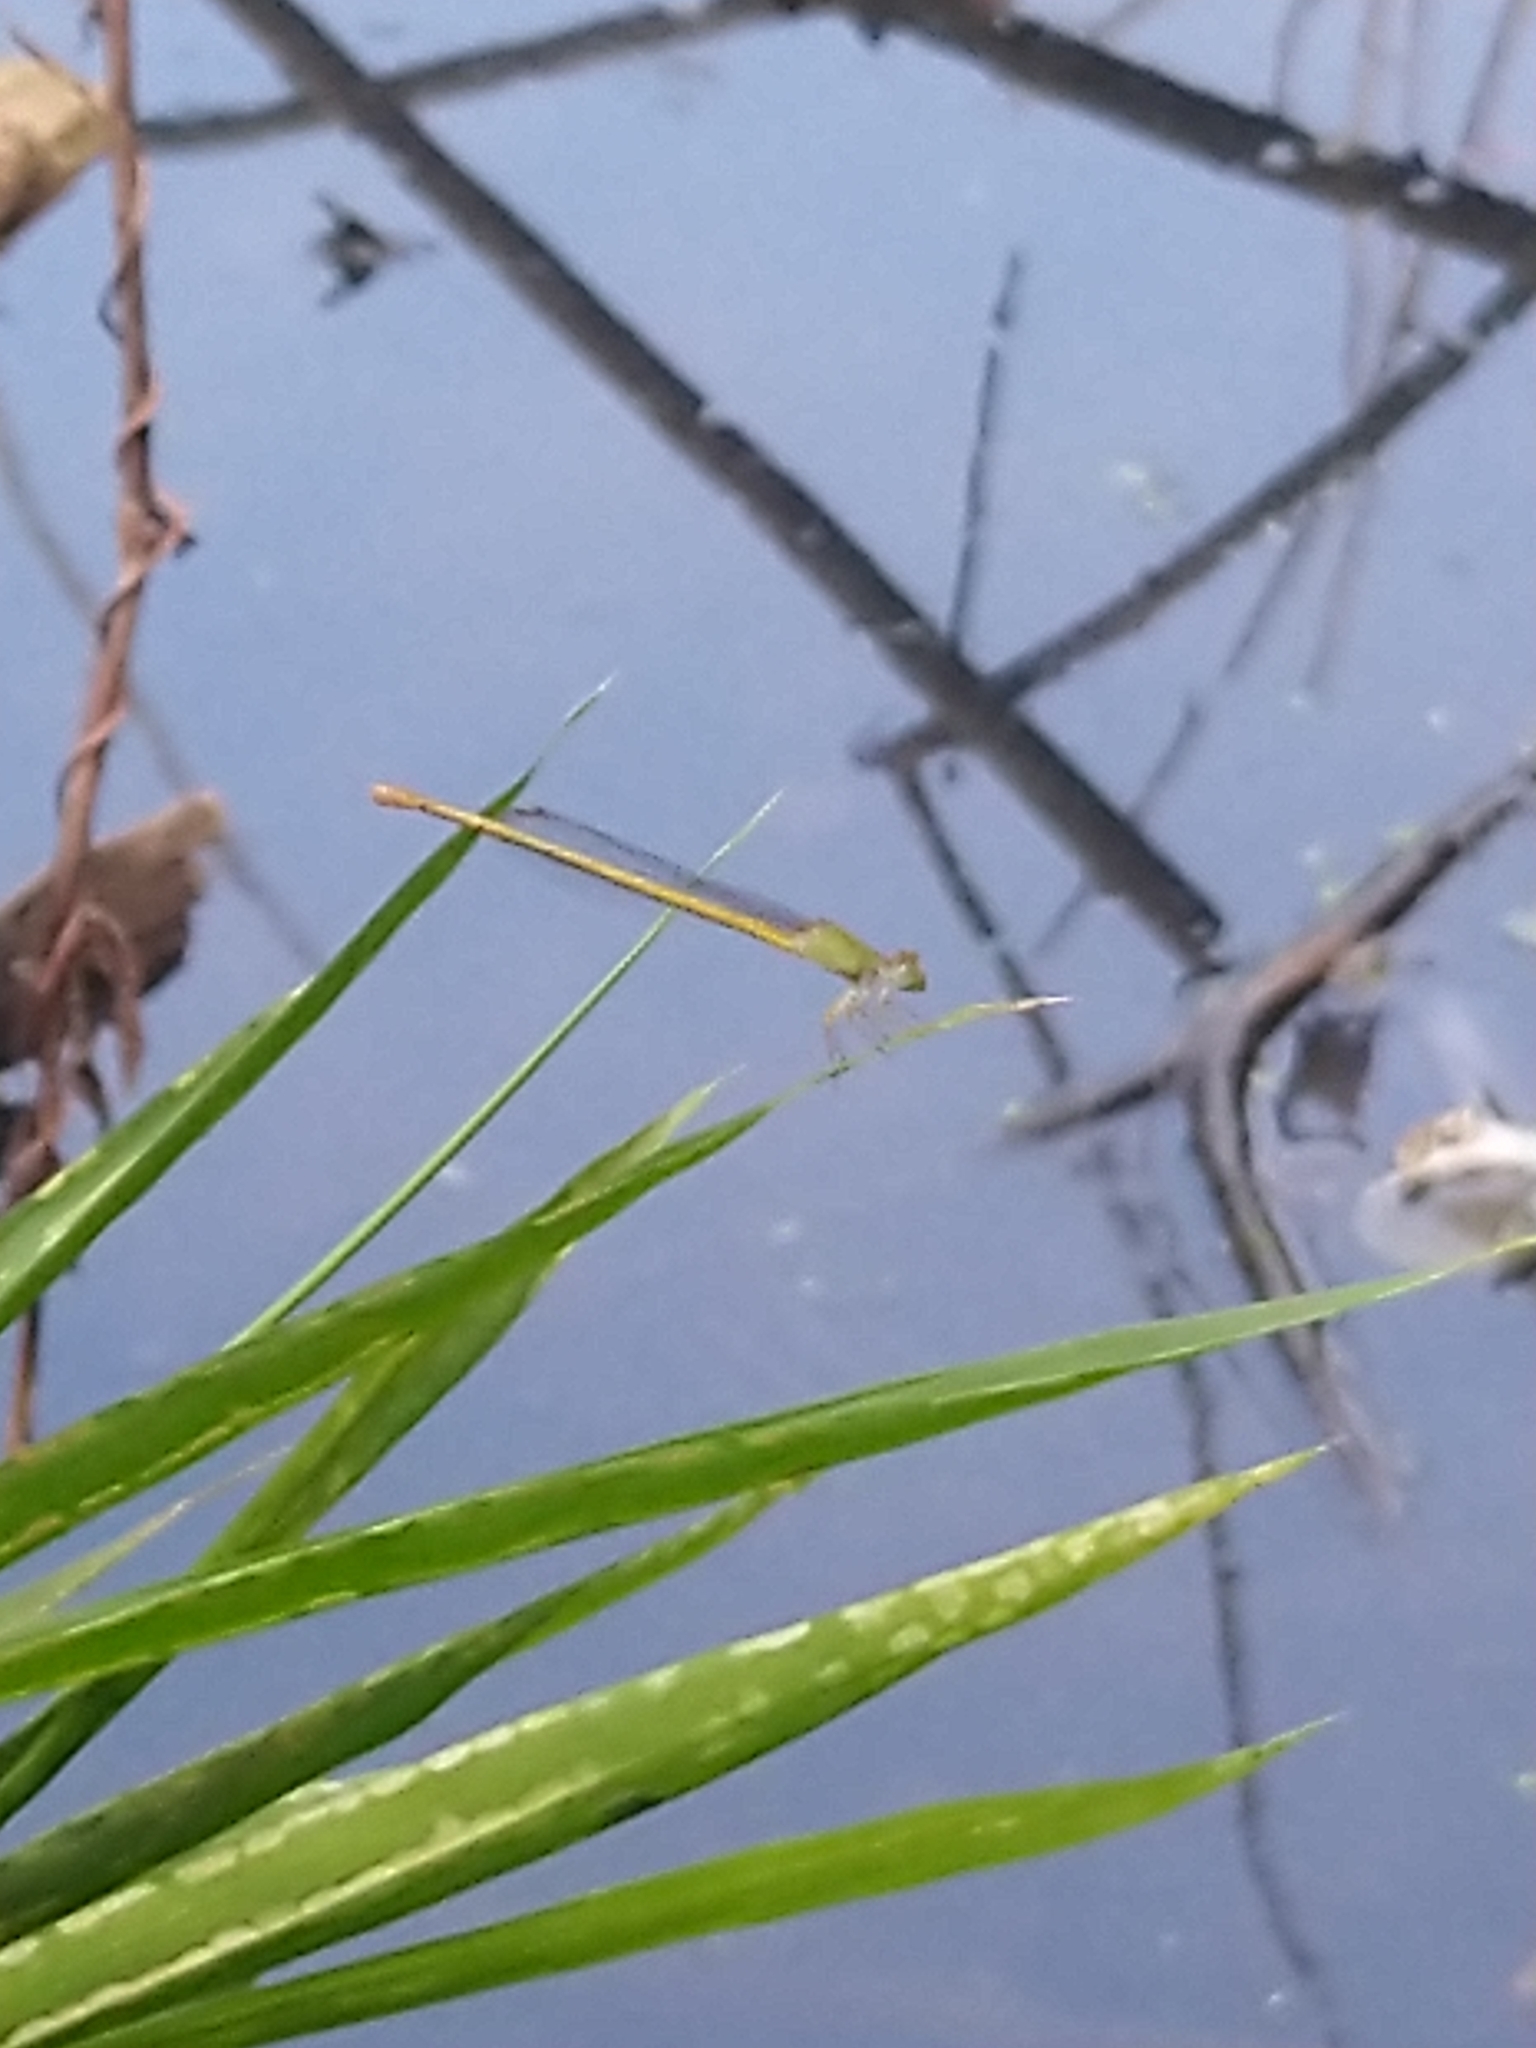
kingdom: Animalia
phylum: Arthropoda
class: Insecta
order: Odonata
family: Coenagrionidae
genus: Ceriagrion
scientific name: Ceriagrion coromandelianum
